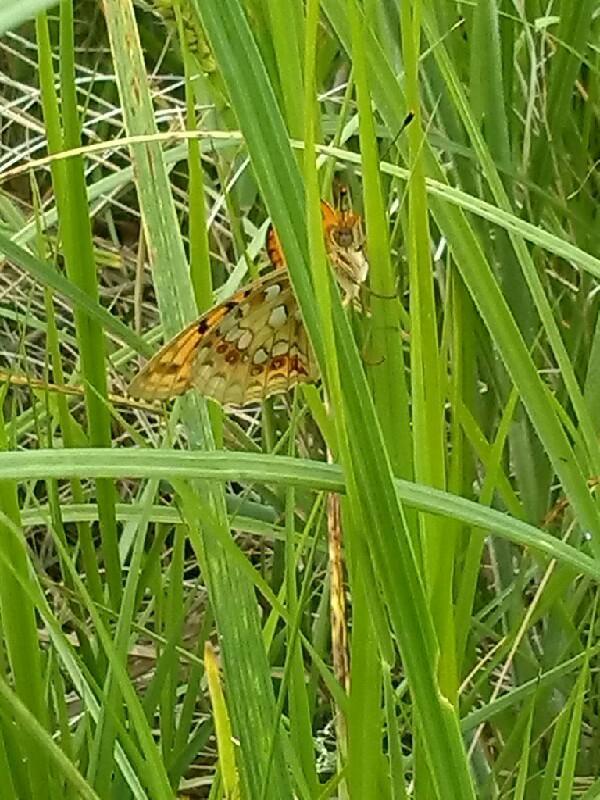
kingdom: Animalia
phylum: Arthropoda
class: Insecta
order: Lepidoptera
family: Nymphalidae
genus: Fabriciana
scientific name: Fabriciana adippe
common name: High brown fritillary
